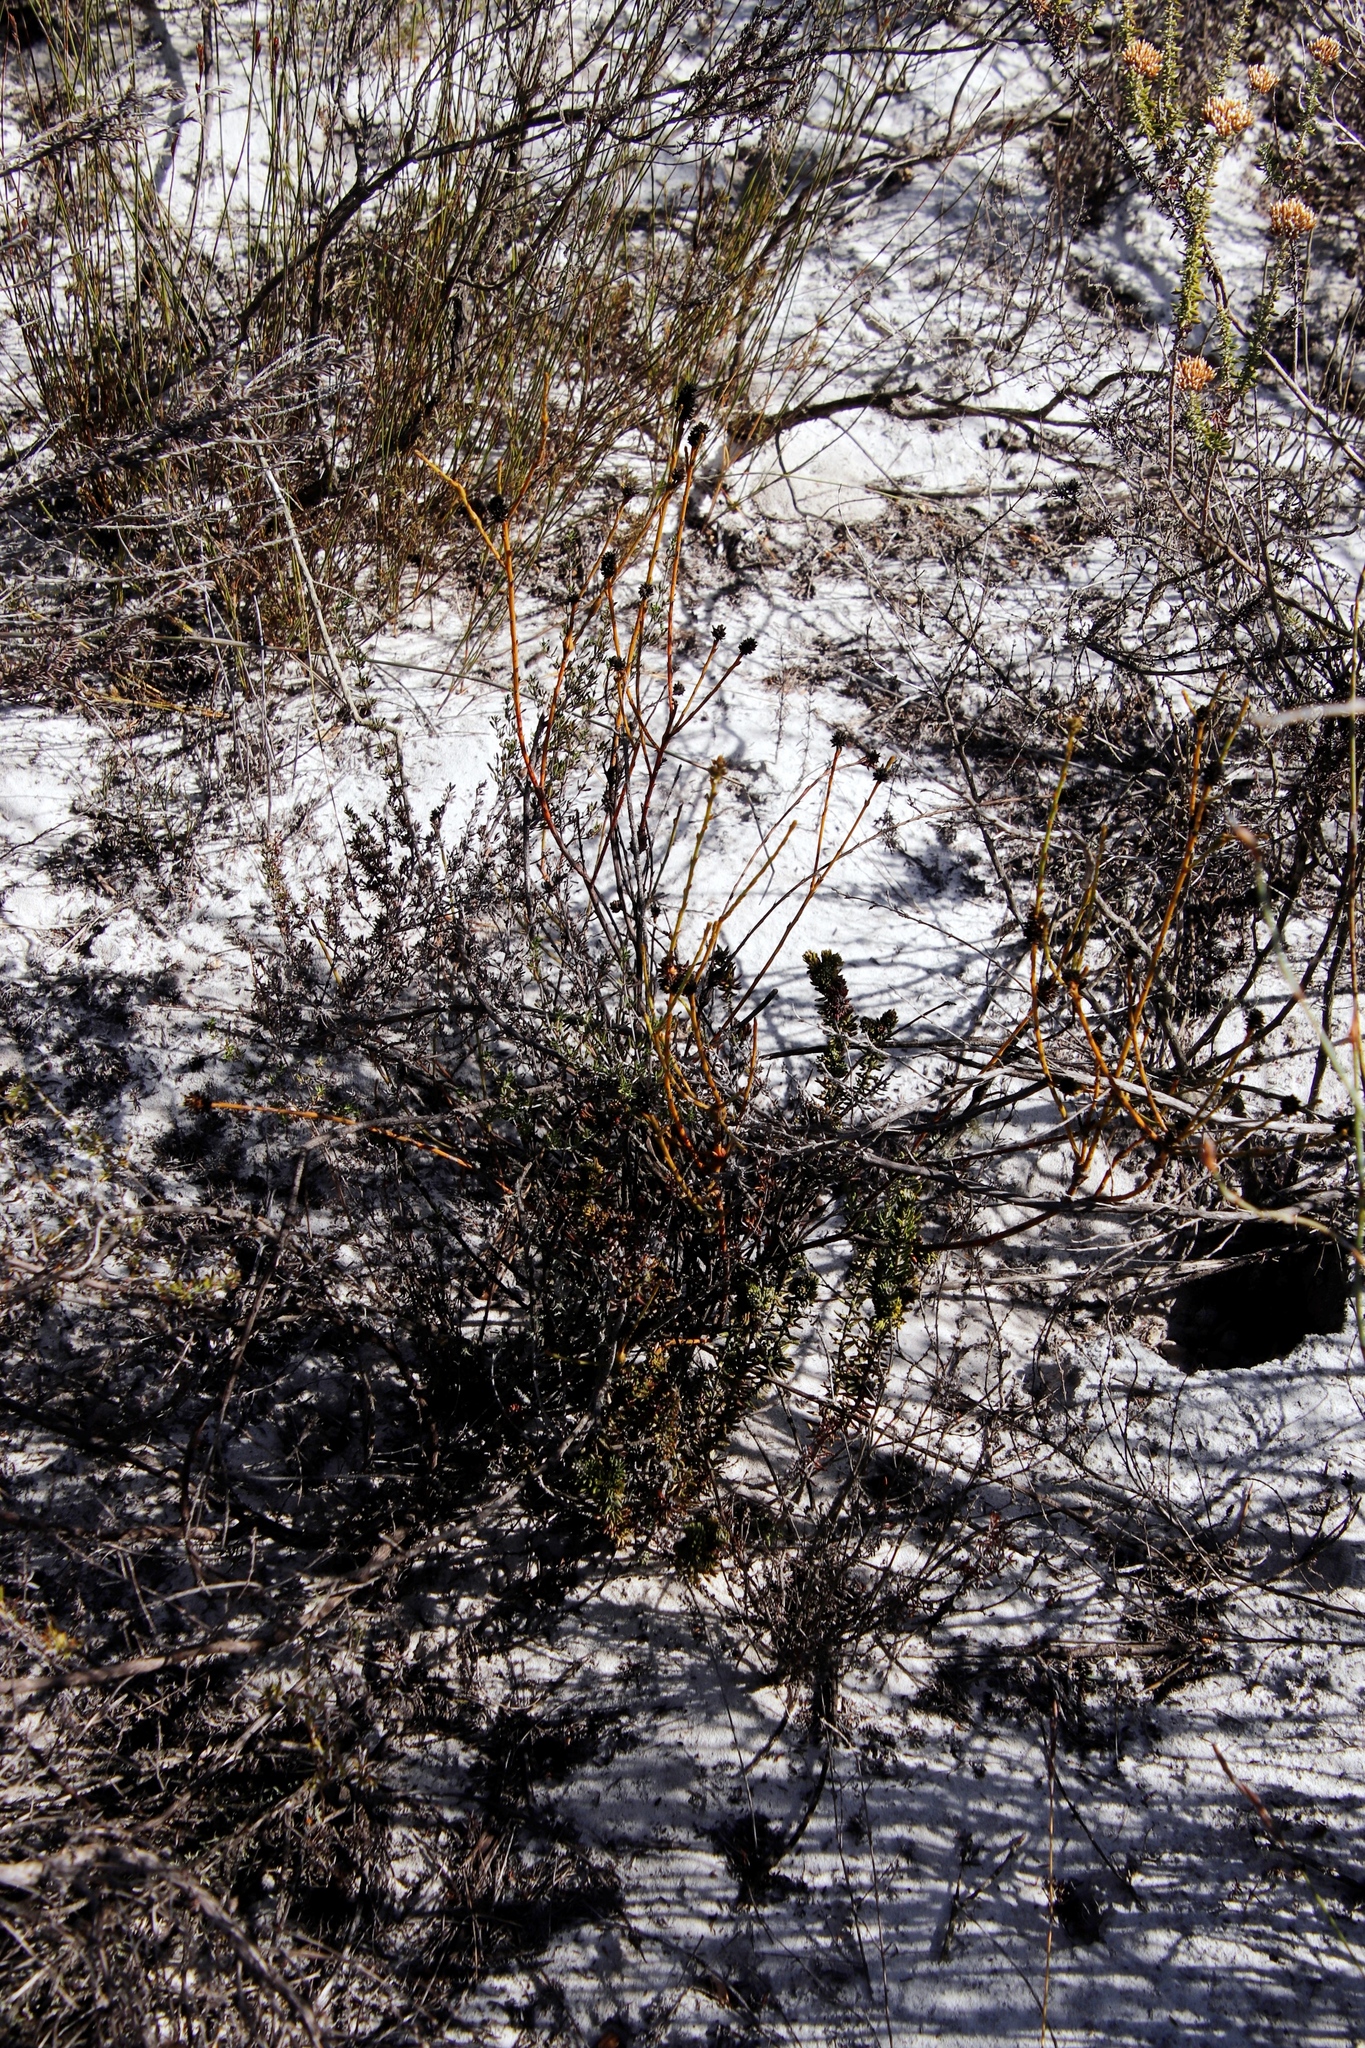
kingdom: Plantae
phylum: Tracheophyta
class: Magnoliopsida
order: Santalales
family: Thesiaceae
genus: Thesium
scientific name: Thesium aggregatum
